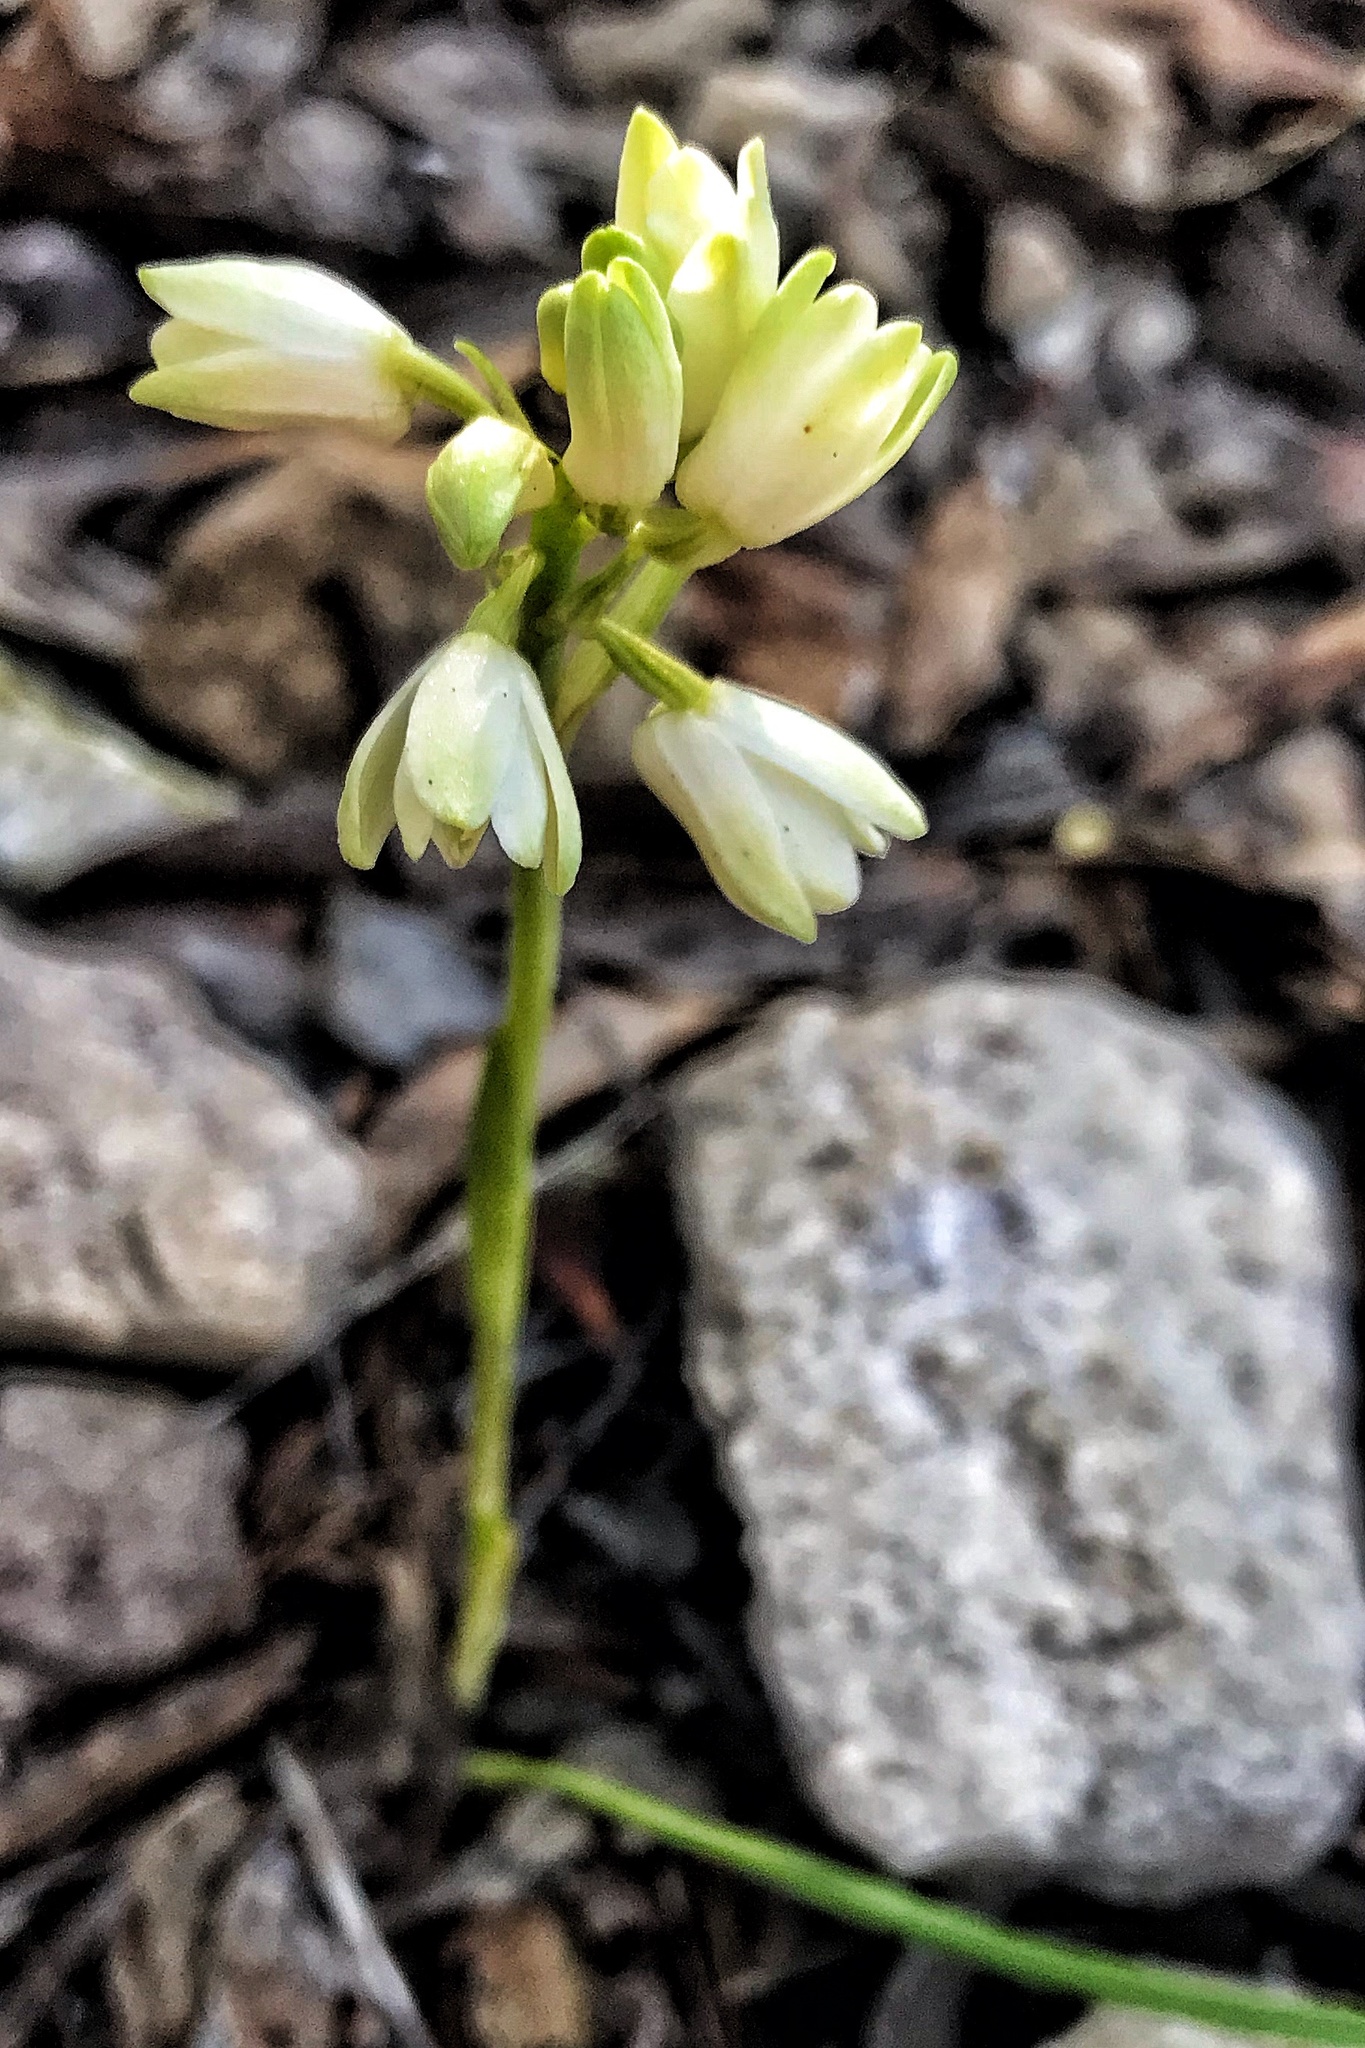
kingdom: Plantae
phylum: Tracheophyta
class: Liliopsida
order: Asparagales
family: Orchidaceae
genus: Eulophia
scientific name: Eulophia aculeata
